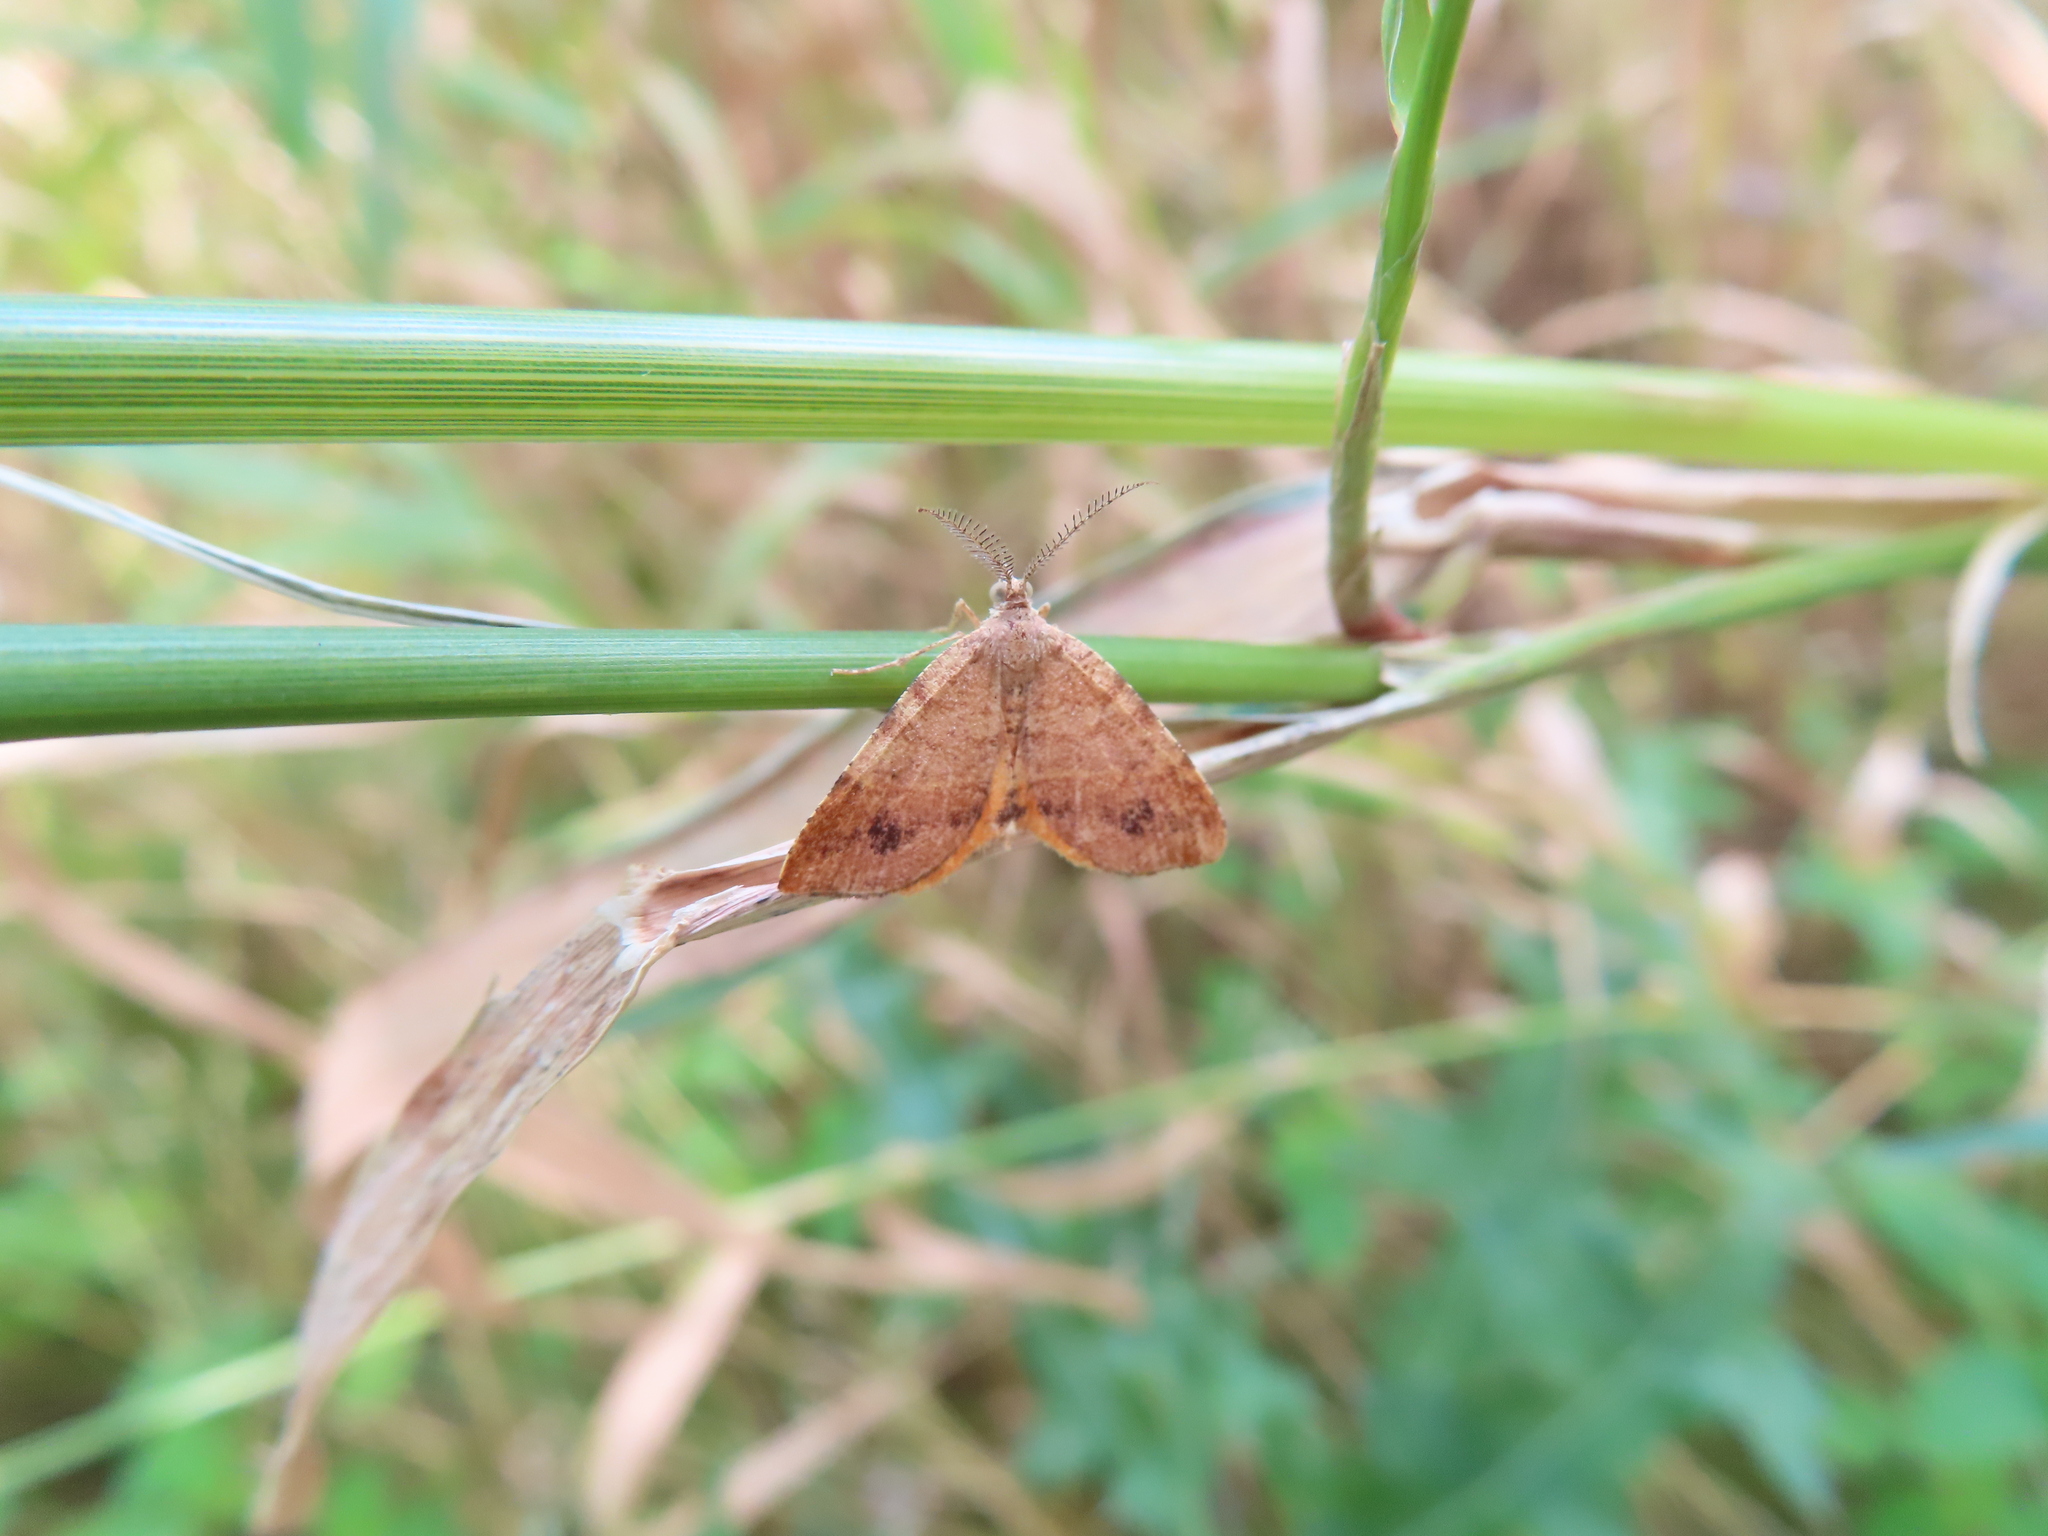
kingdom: Animalia
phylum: Arthropoda
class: Insecta
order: Lepidoptera
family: Geometridae
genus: Mellilla
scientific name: Mellilla xanthometata
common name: Orange wing moth
